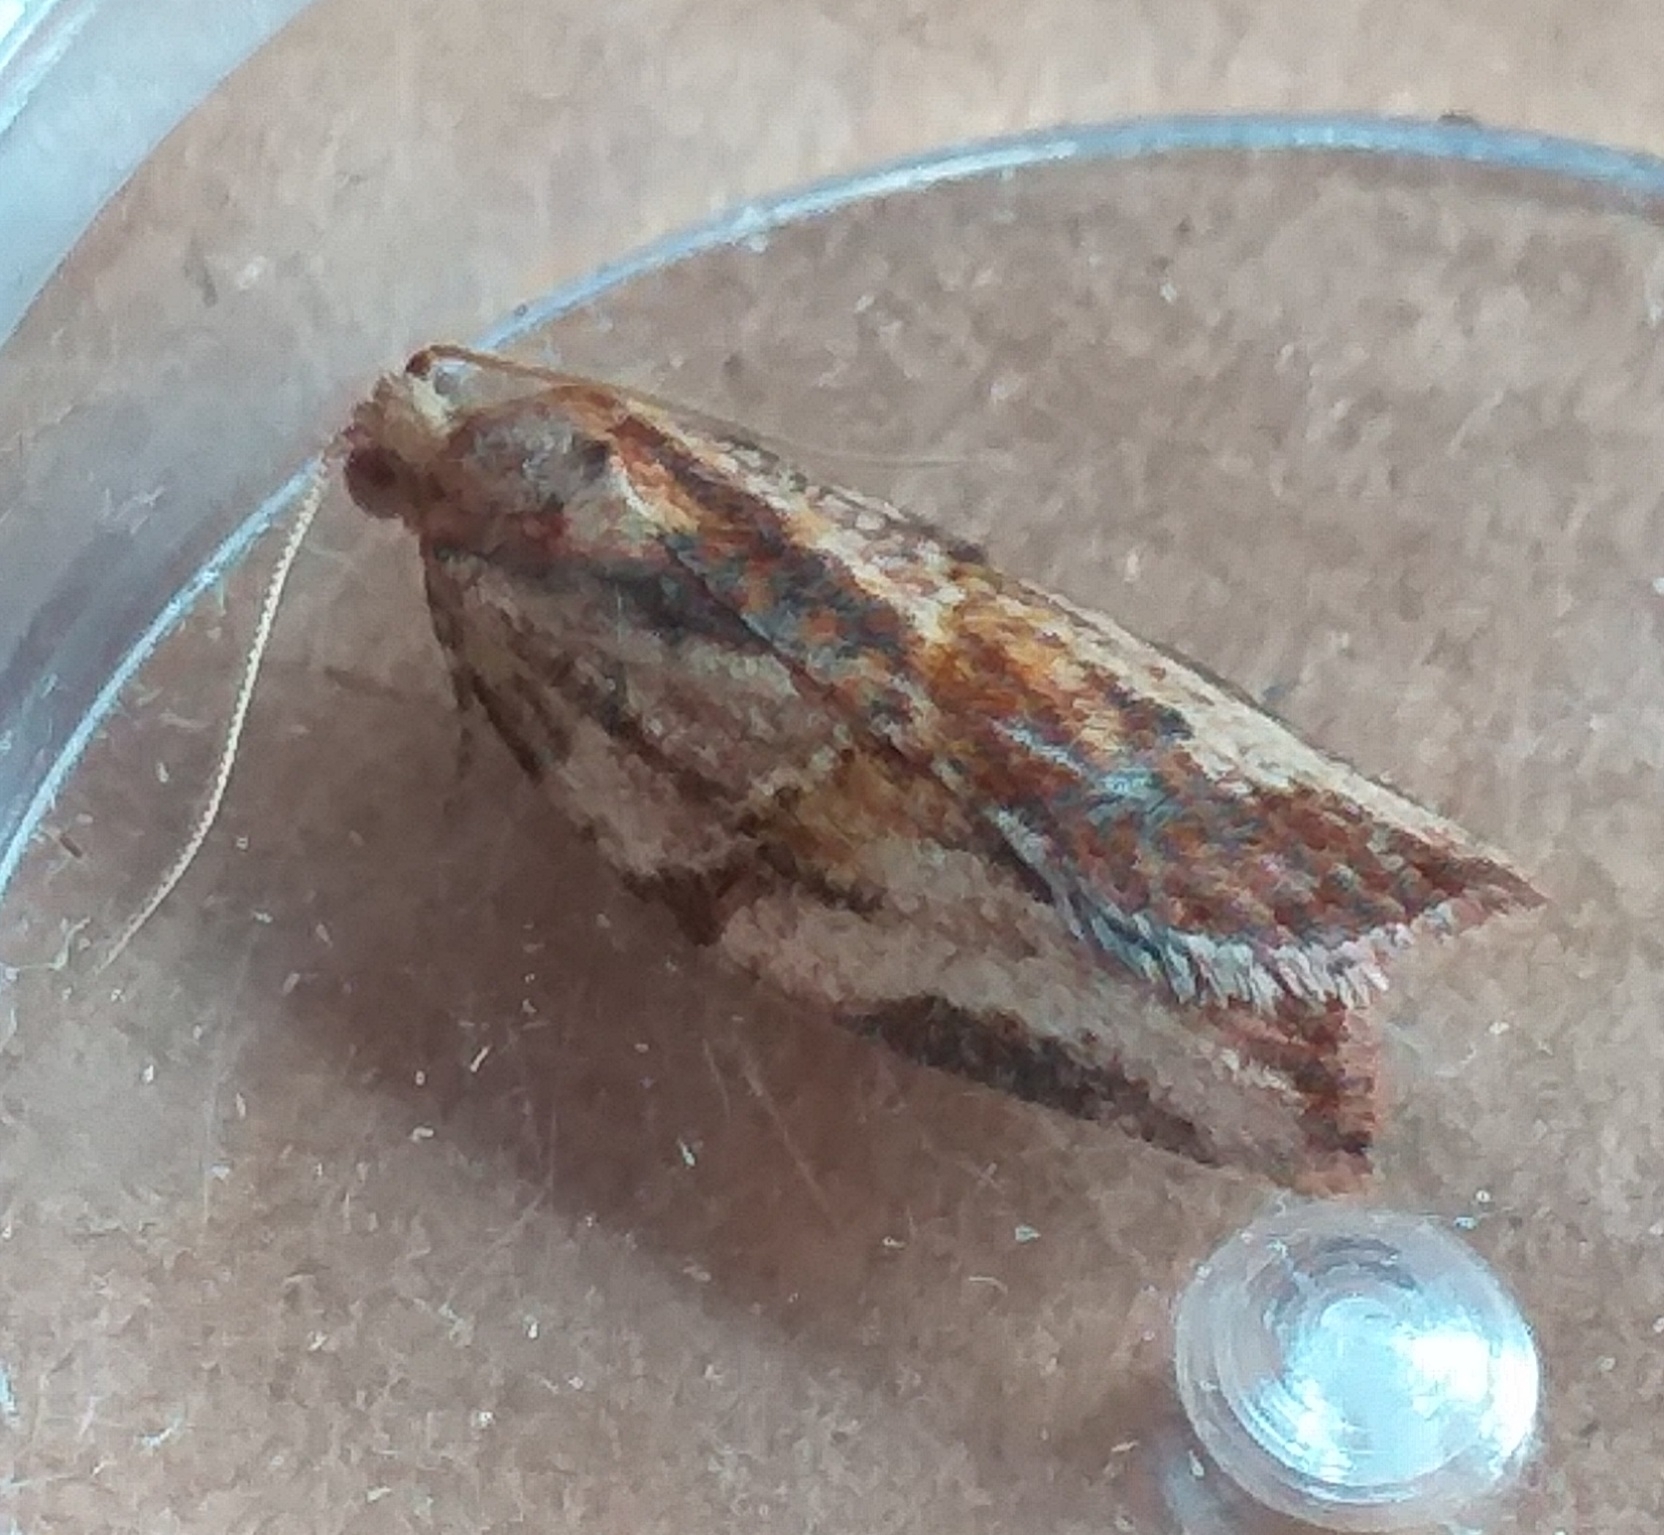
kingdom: Animalia
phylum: Arthropoda
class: Insecta
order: Lepidoptera
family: Tortricidae
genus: Epiphyas
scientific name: Epiphyas postvittana
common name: Light brown apple moth
